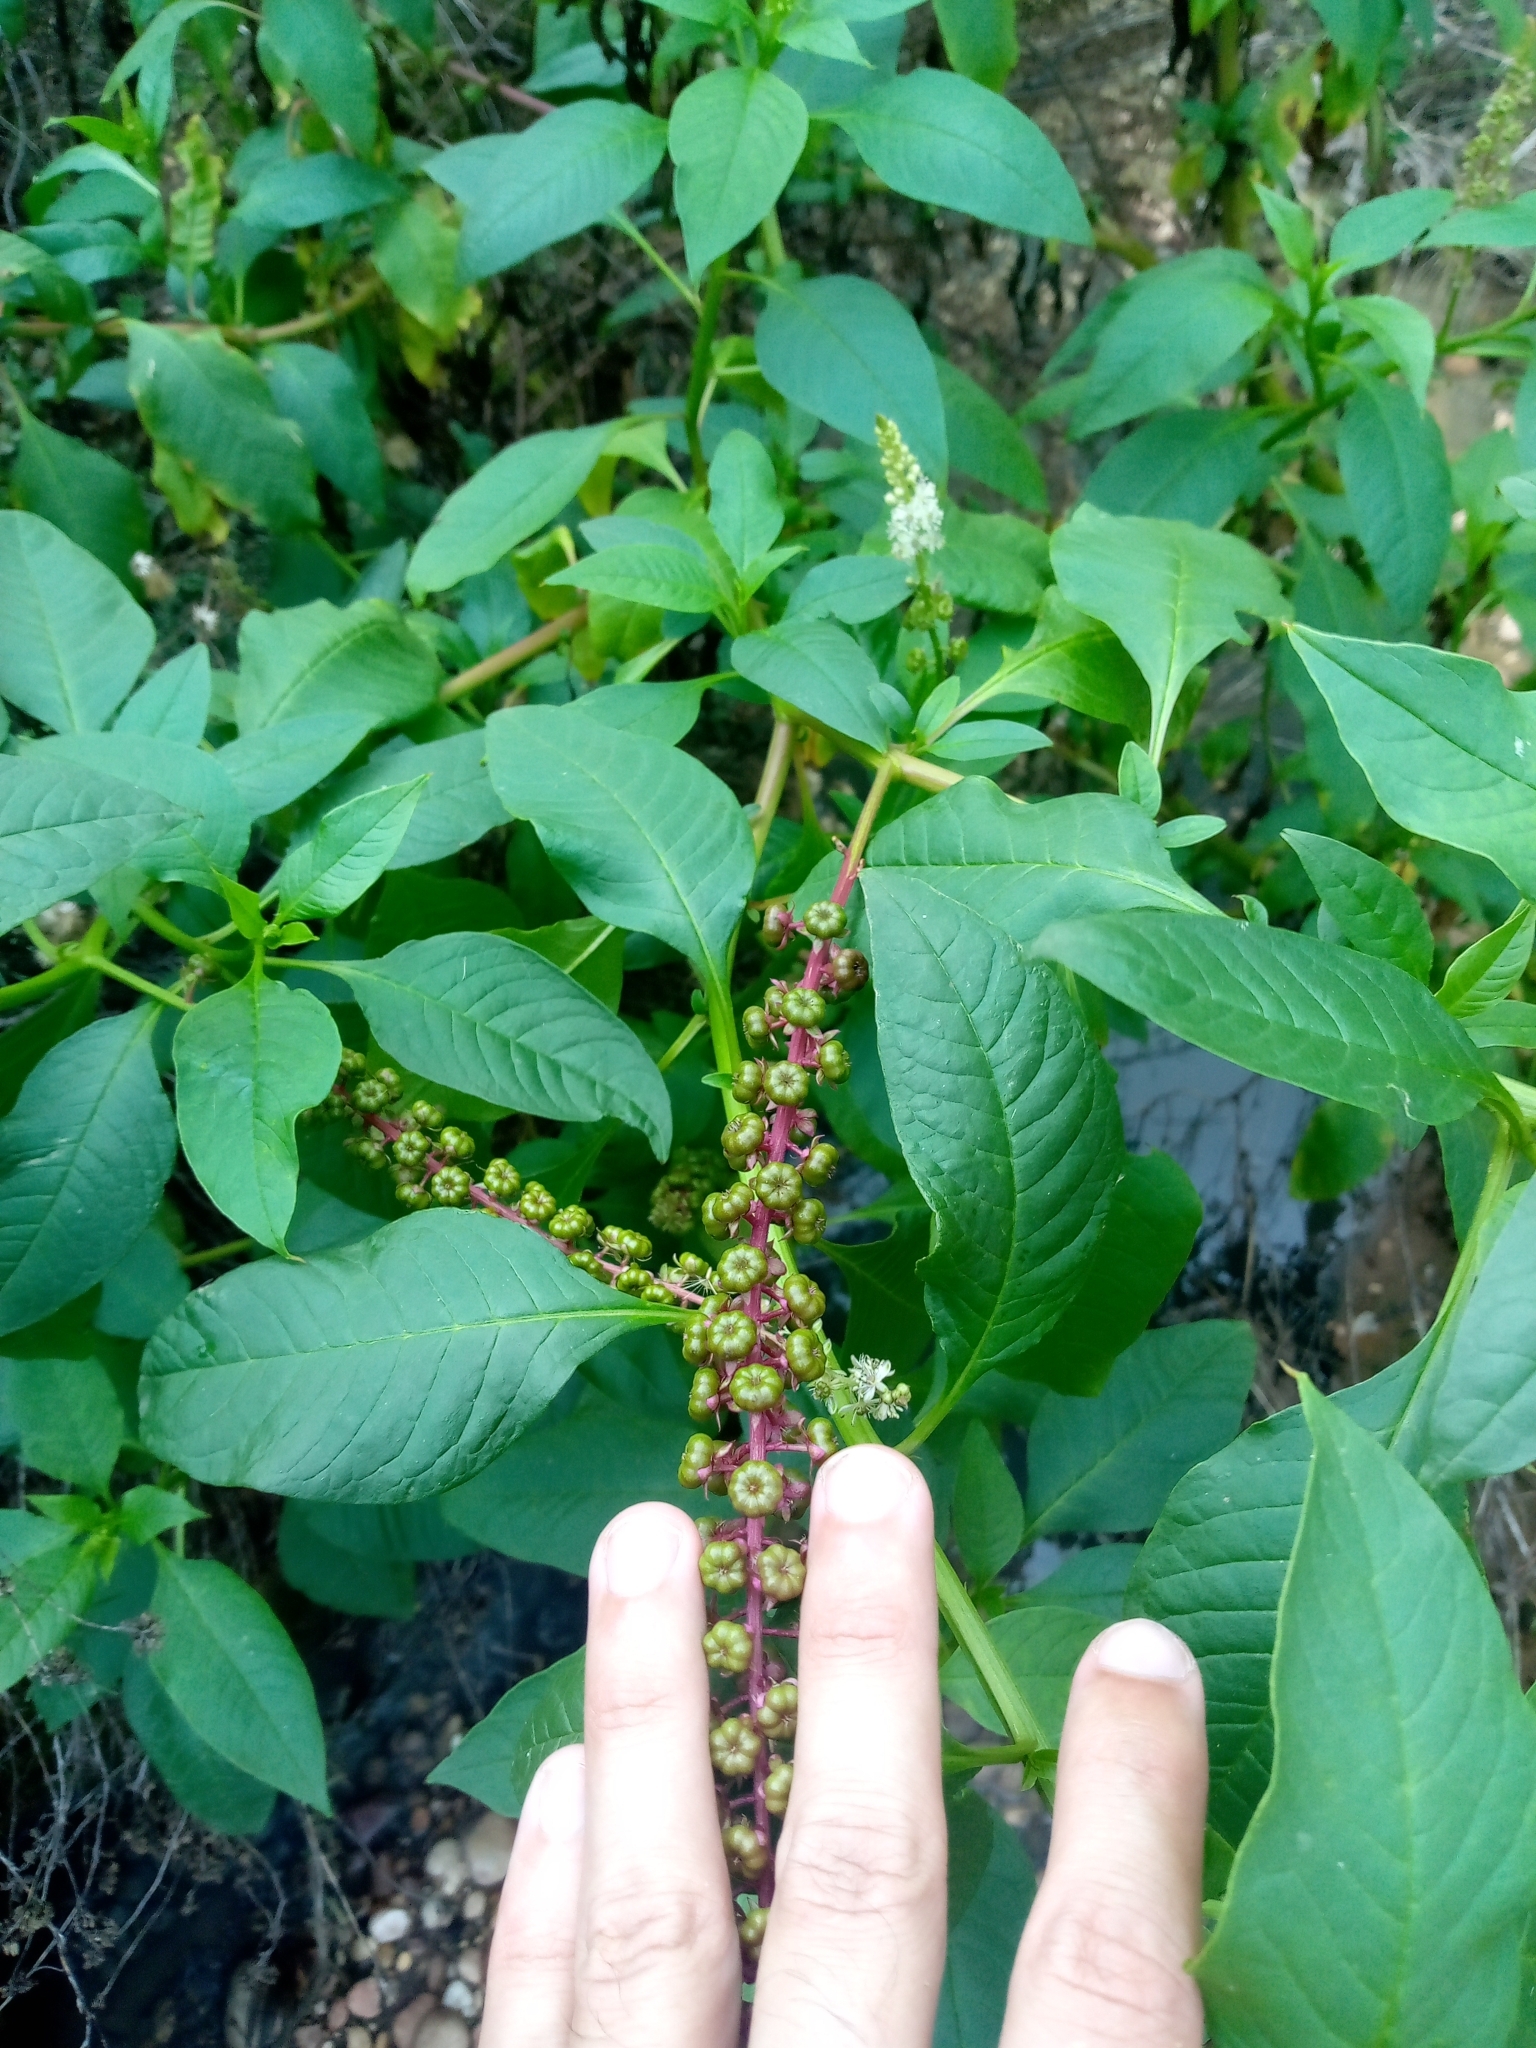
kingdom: Plantae
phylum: Tracheophyta
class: Magnoliopsida
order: Caryophyllales
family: Phytolaccaceae
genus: Phytolacca
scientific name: Phytolacca heterotepala
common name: Mexican pokeweed
